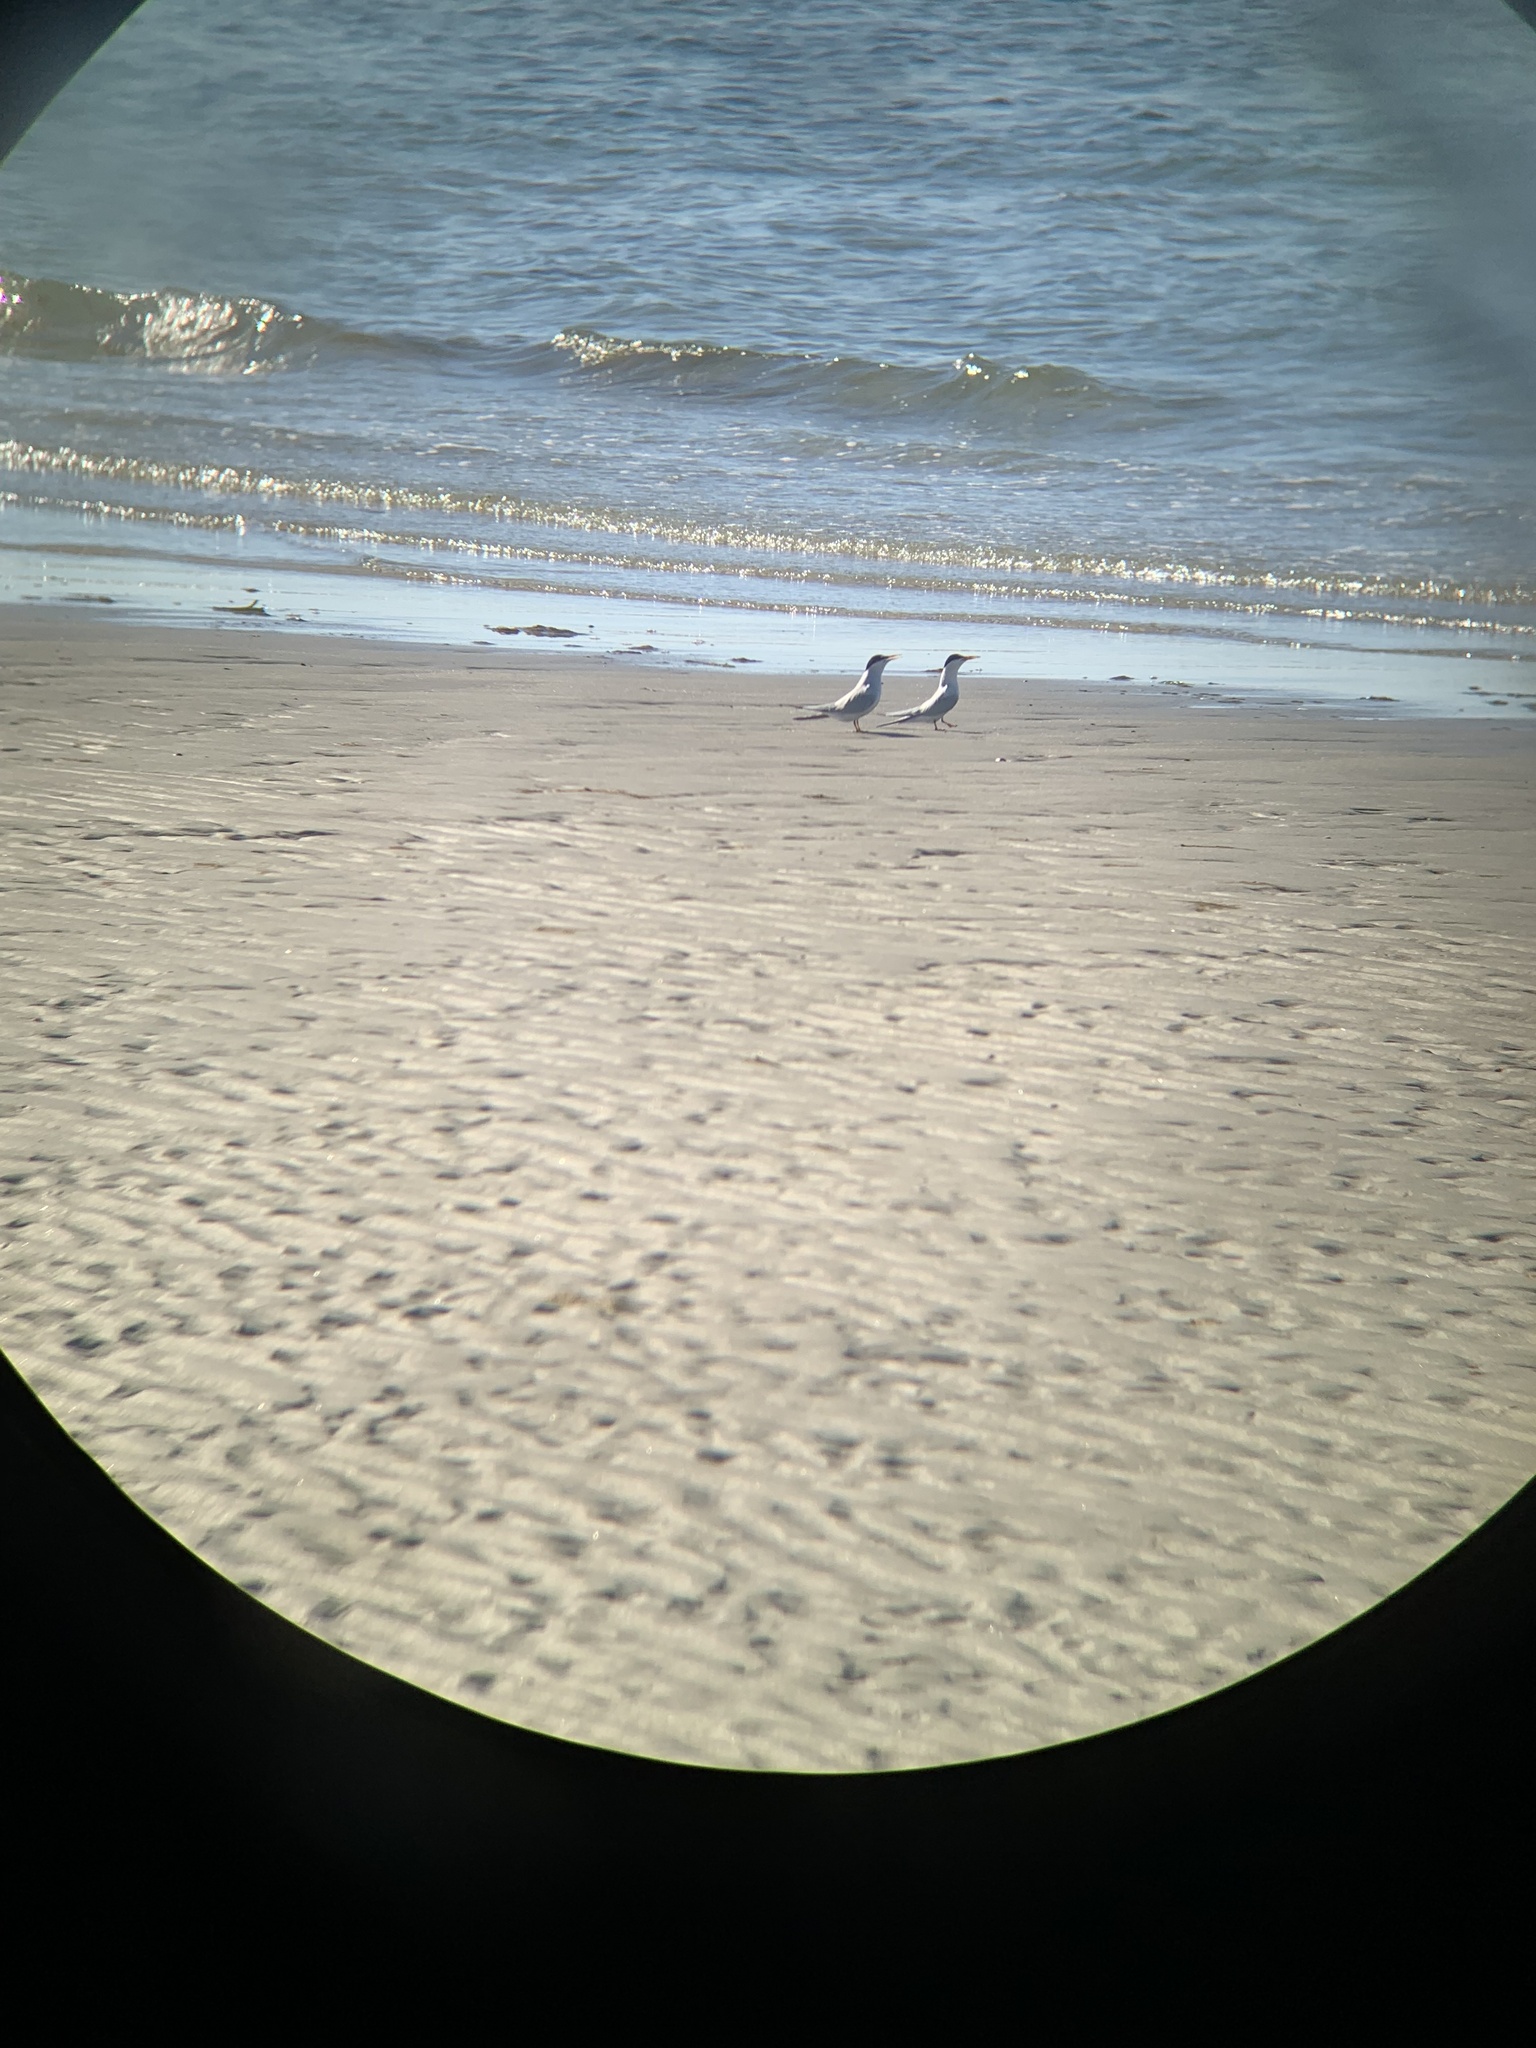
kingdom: Animalia
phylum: Chordata
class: Aves
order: Charadriiformes
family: Laridae
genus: Sternula
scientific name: Sternula antillarum
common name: Least tern
